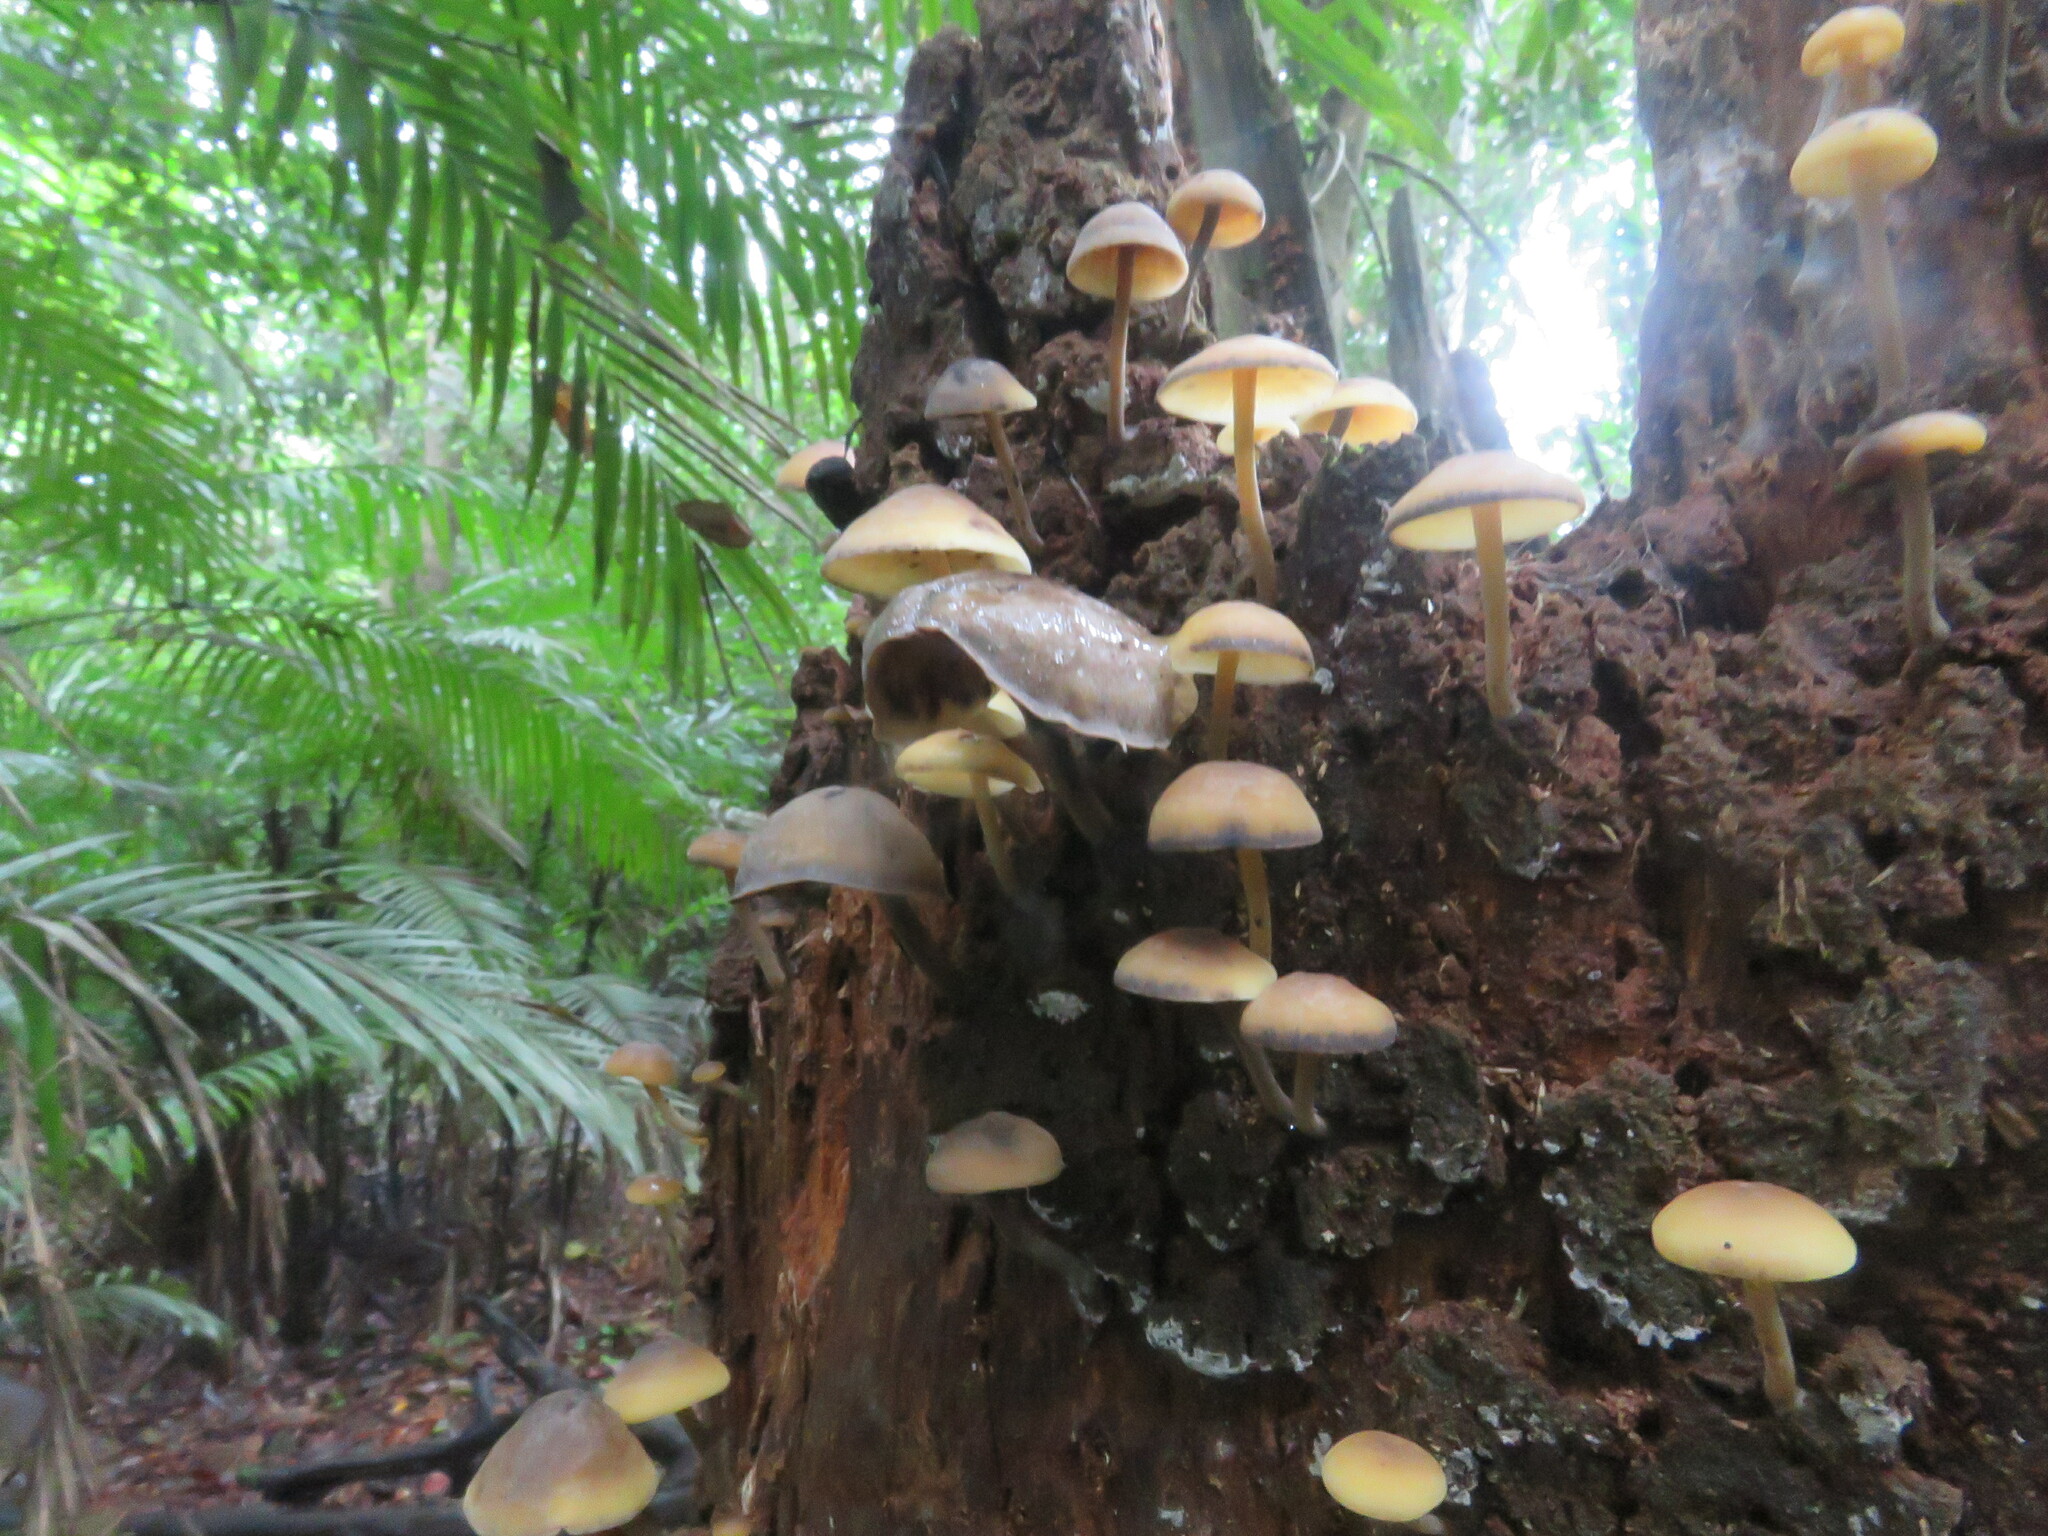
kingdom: Fungi
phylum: Basidiomycota
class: Agaricomycetes
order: Agaricales
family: Mycenaceae
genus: Hydropus
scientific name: Hydropus nigrita
